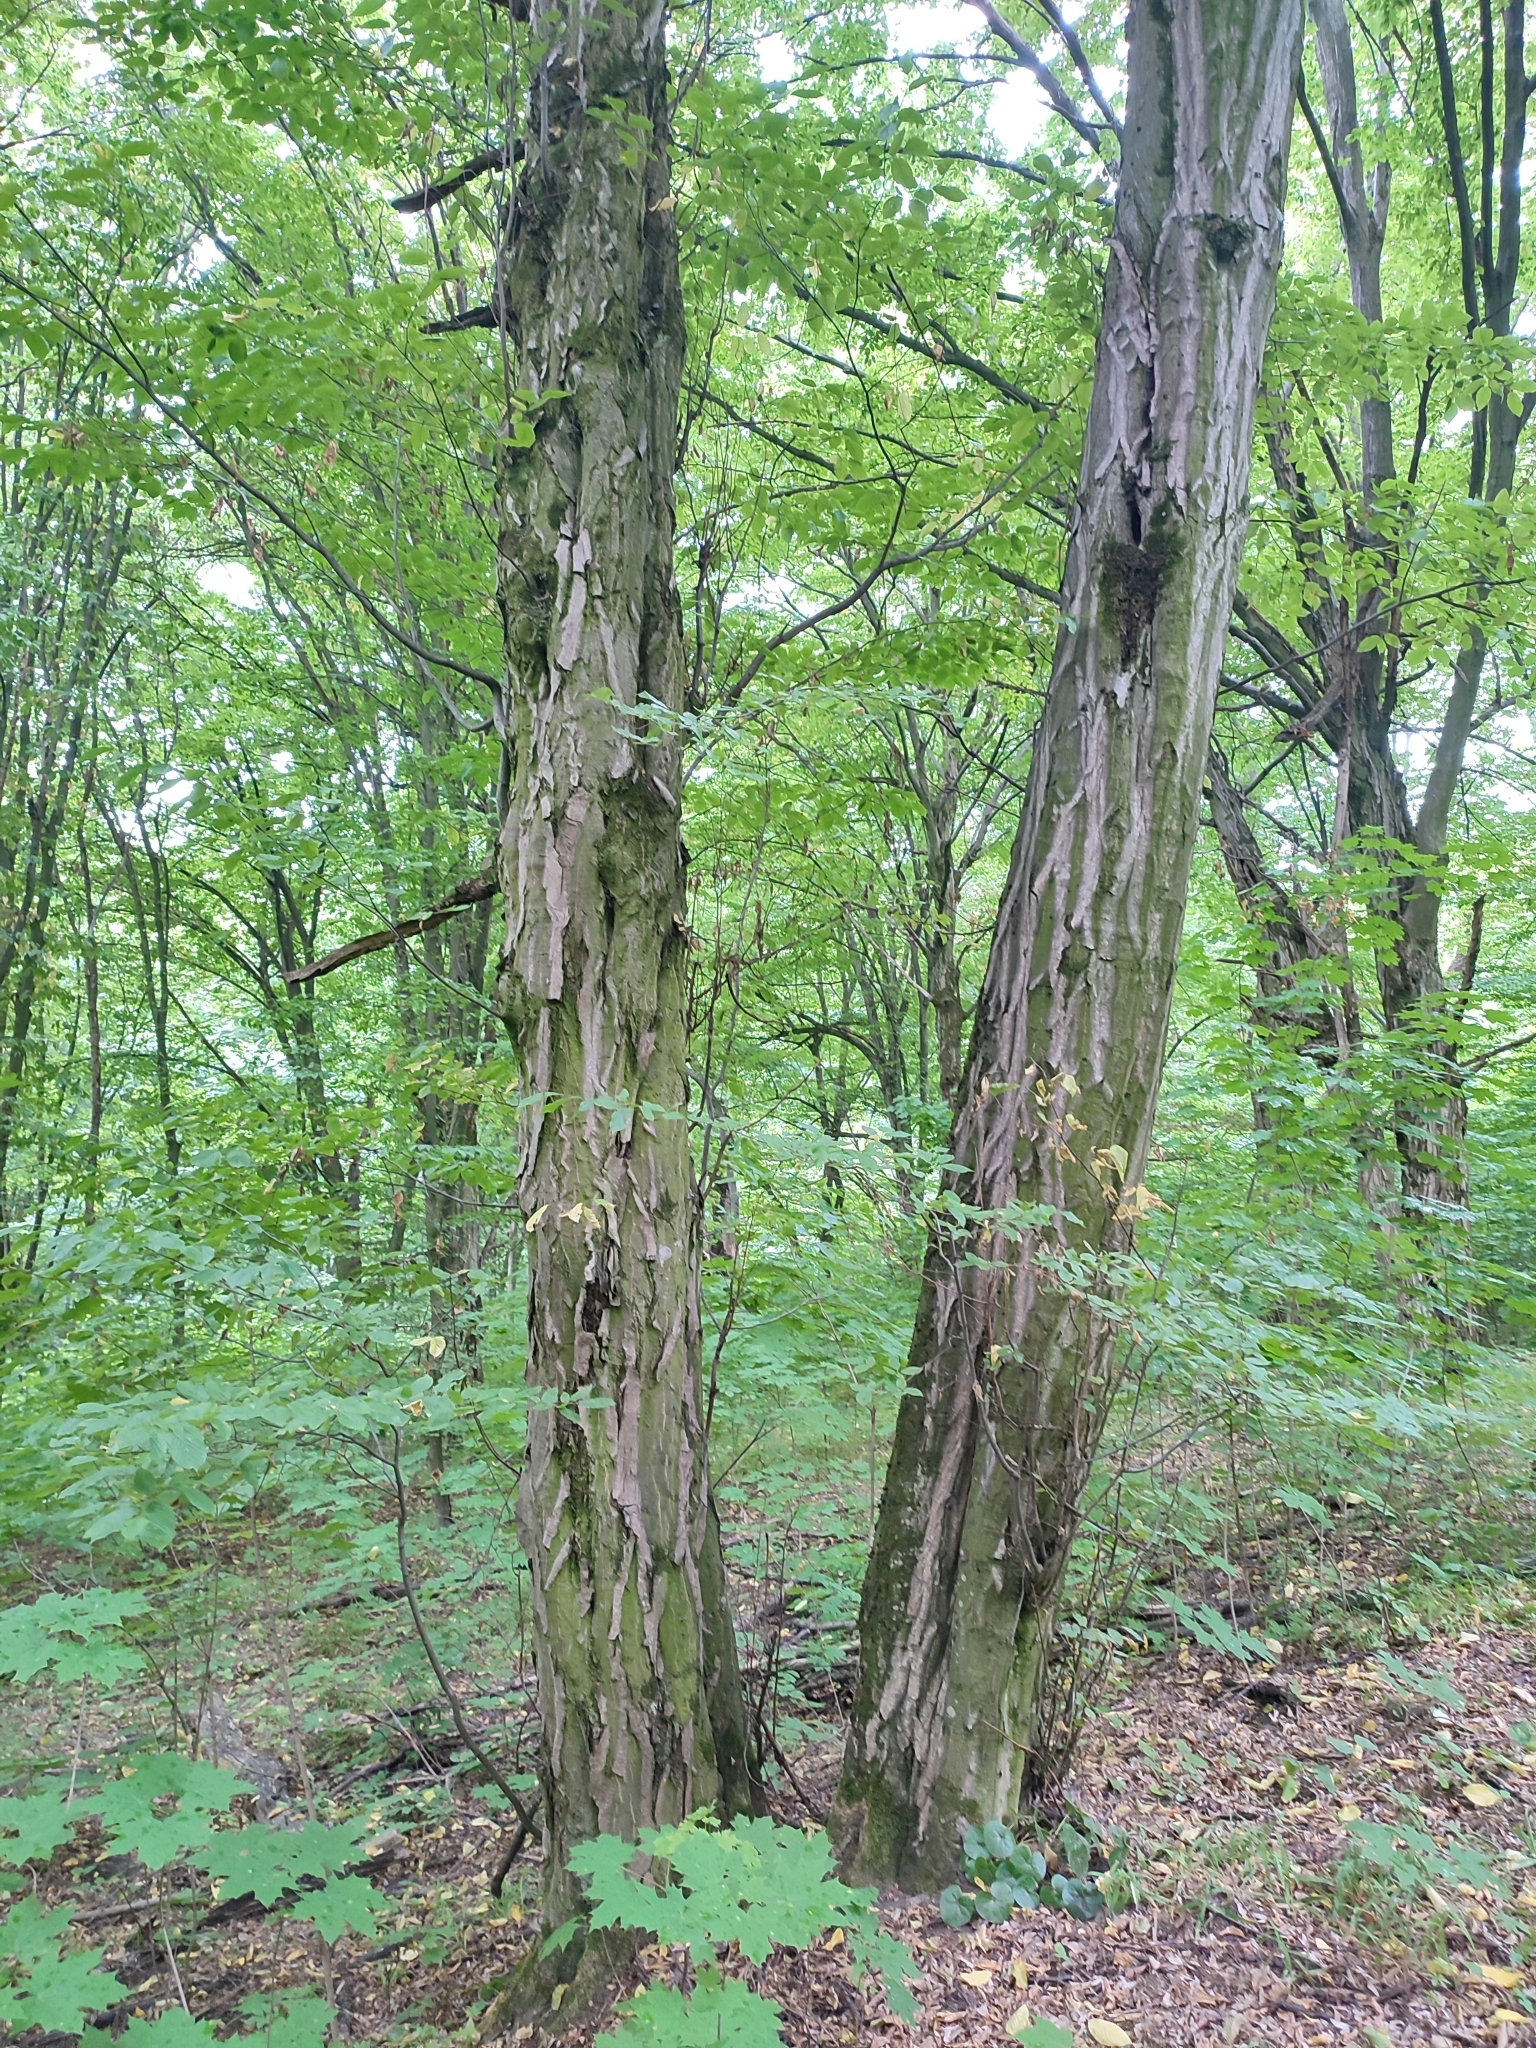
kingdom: Plantae
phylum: Tracheophyta
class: Magnoliopsida
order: Fagales
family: Betulaceae
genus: Carpinus
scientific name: Carpinus betulus
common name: Hornbeam
